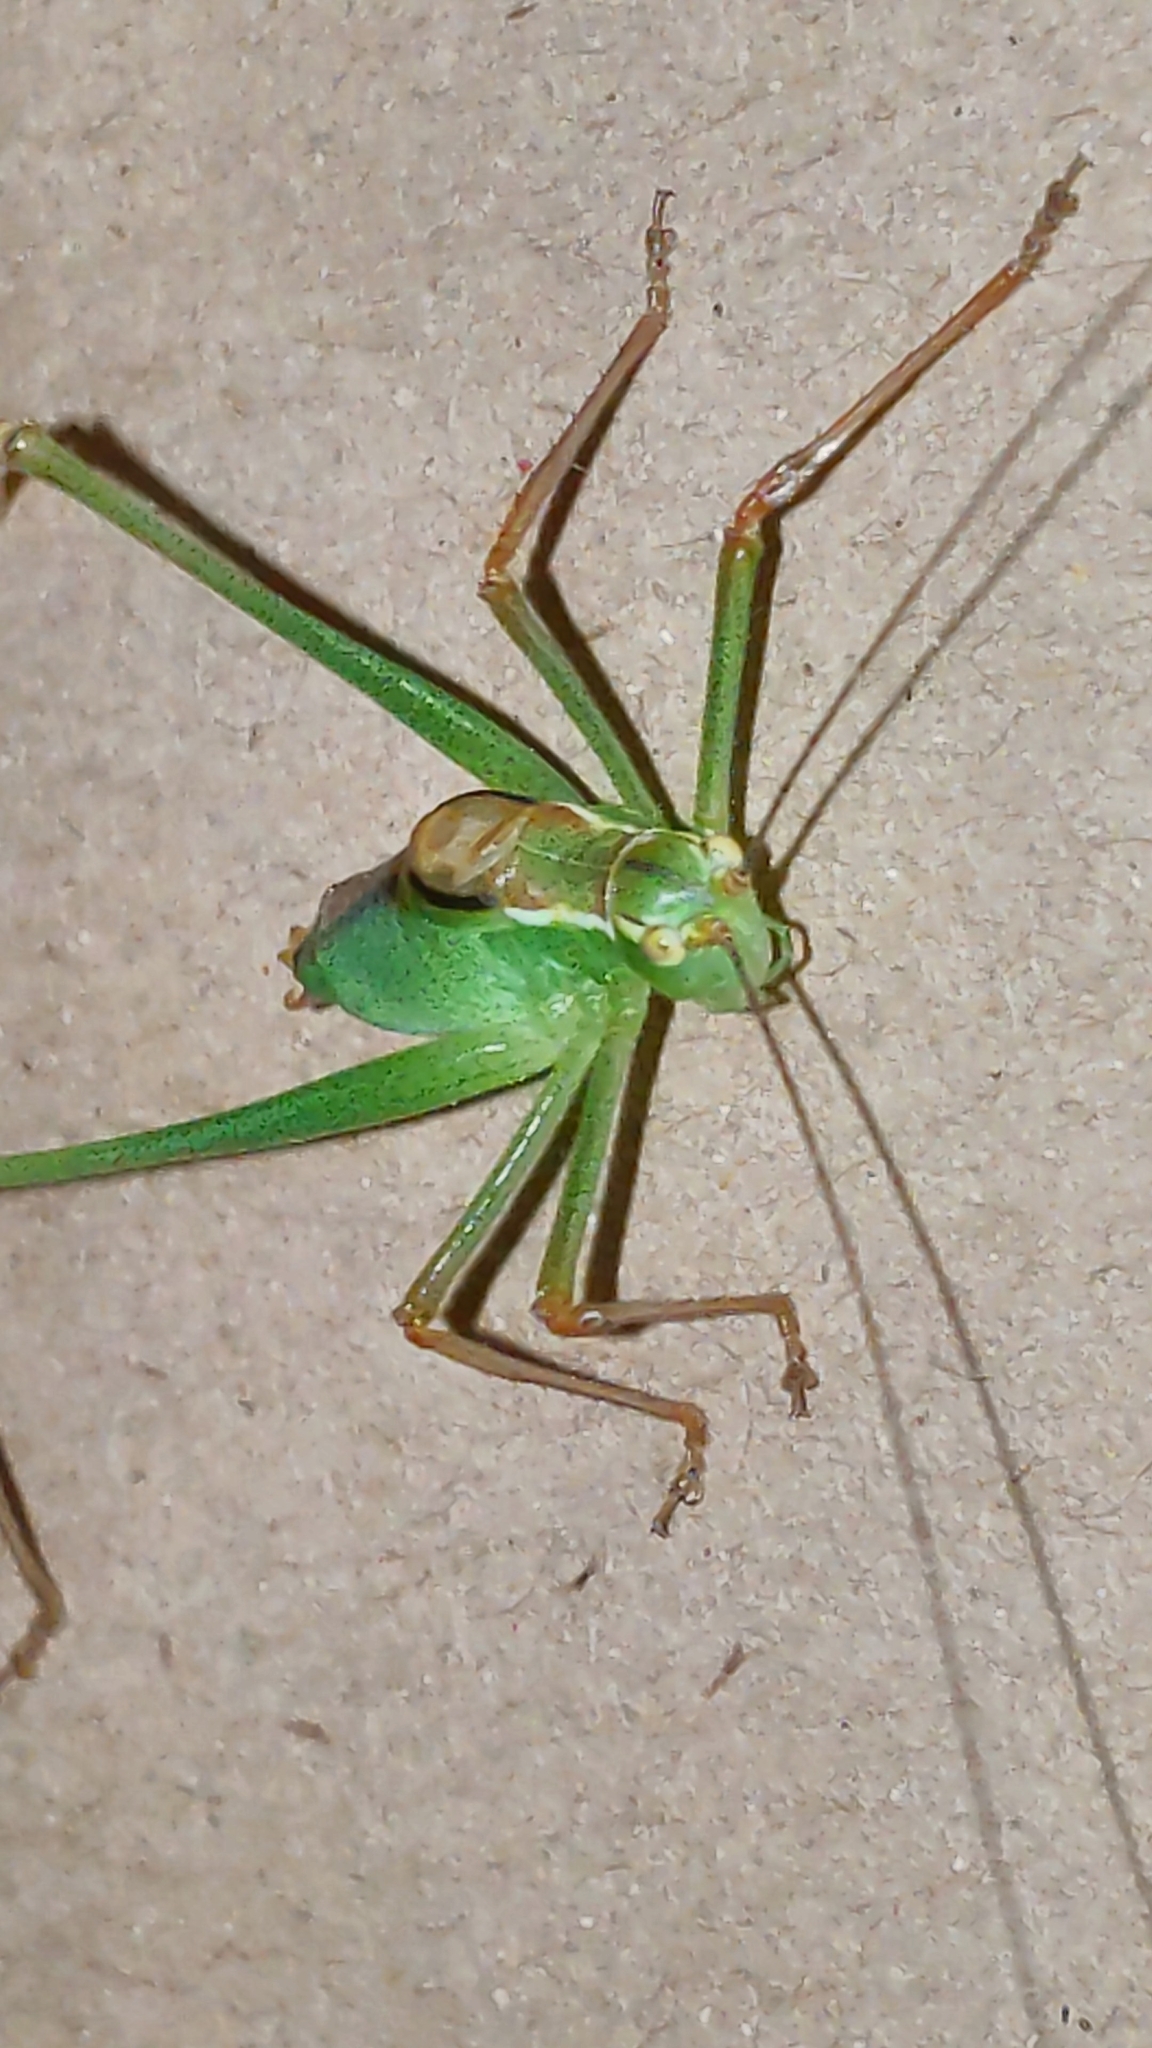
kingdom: Animalia
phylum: Arthropoda
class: Insecta
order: Orthoptera
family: Tettigoniidae
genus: Leptophyes
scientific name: Leptophyes punctatissima
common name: Speckled bush-cricket
